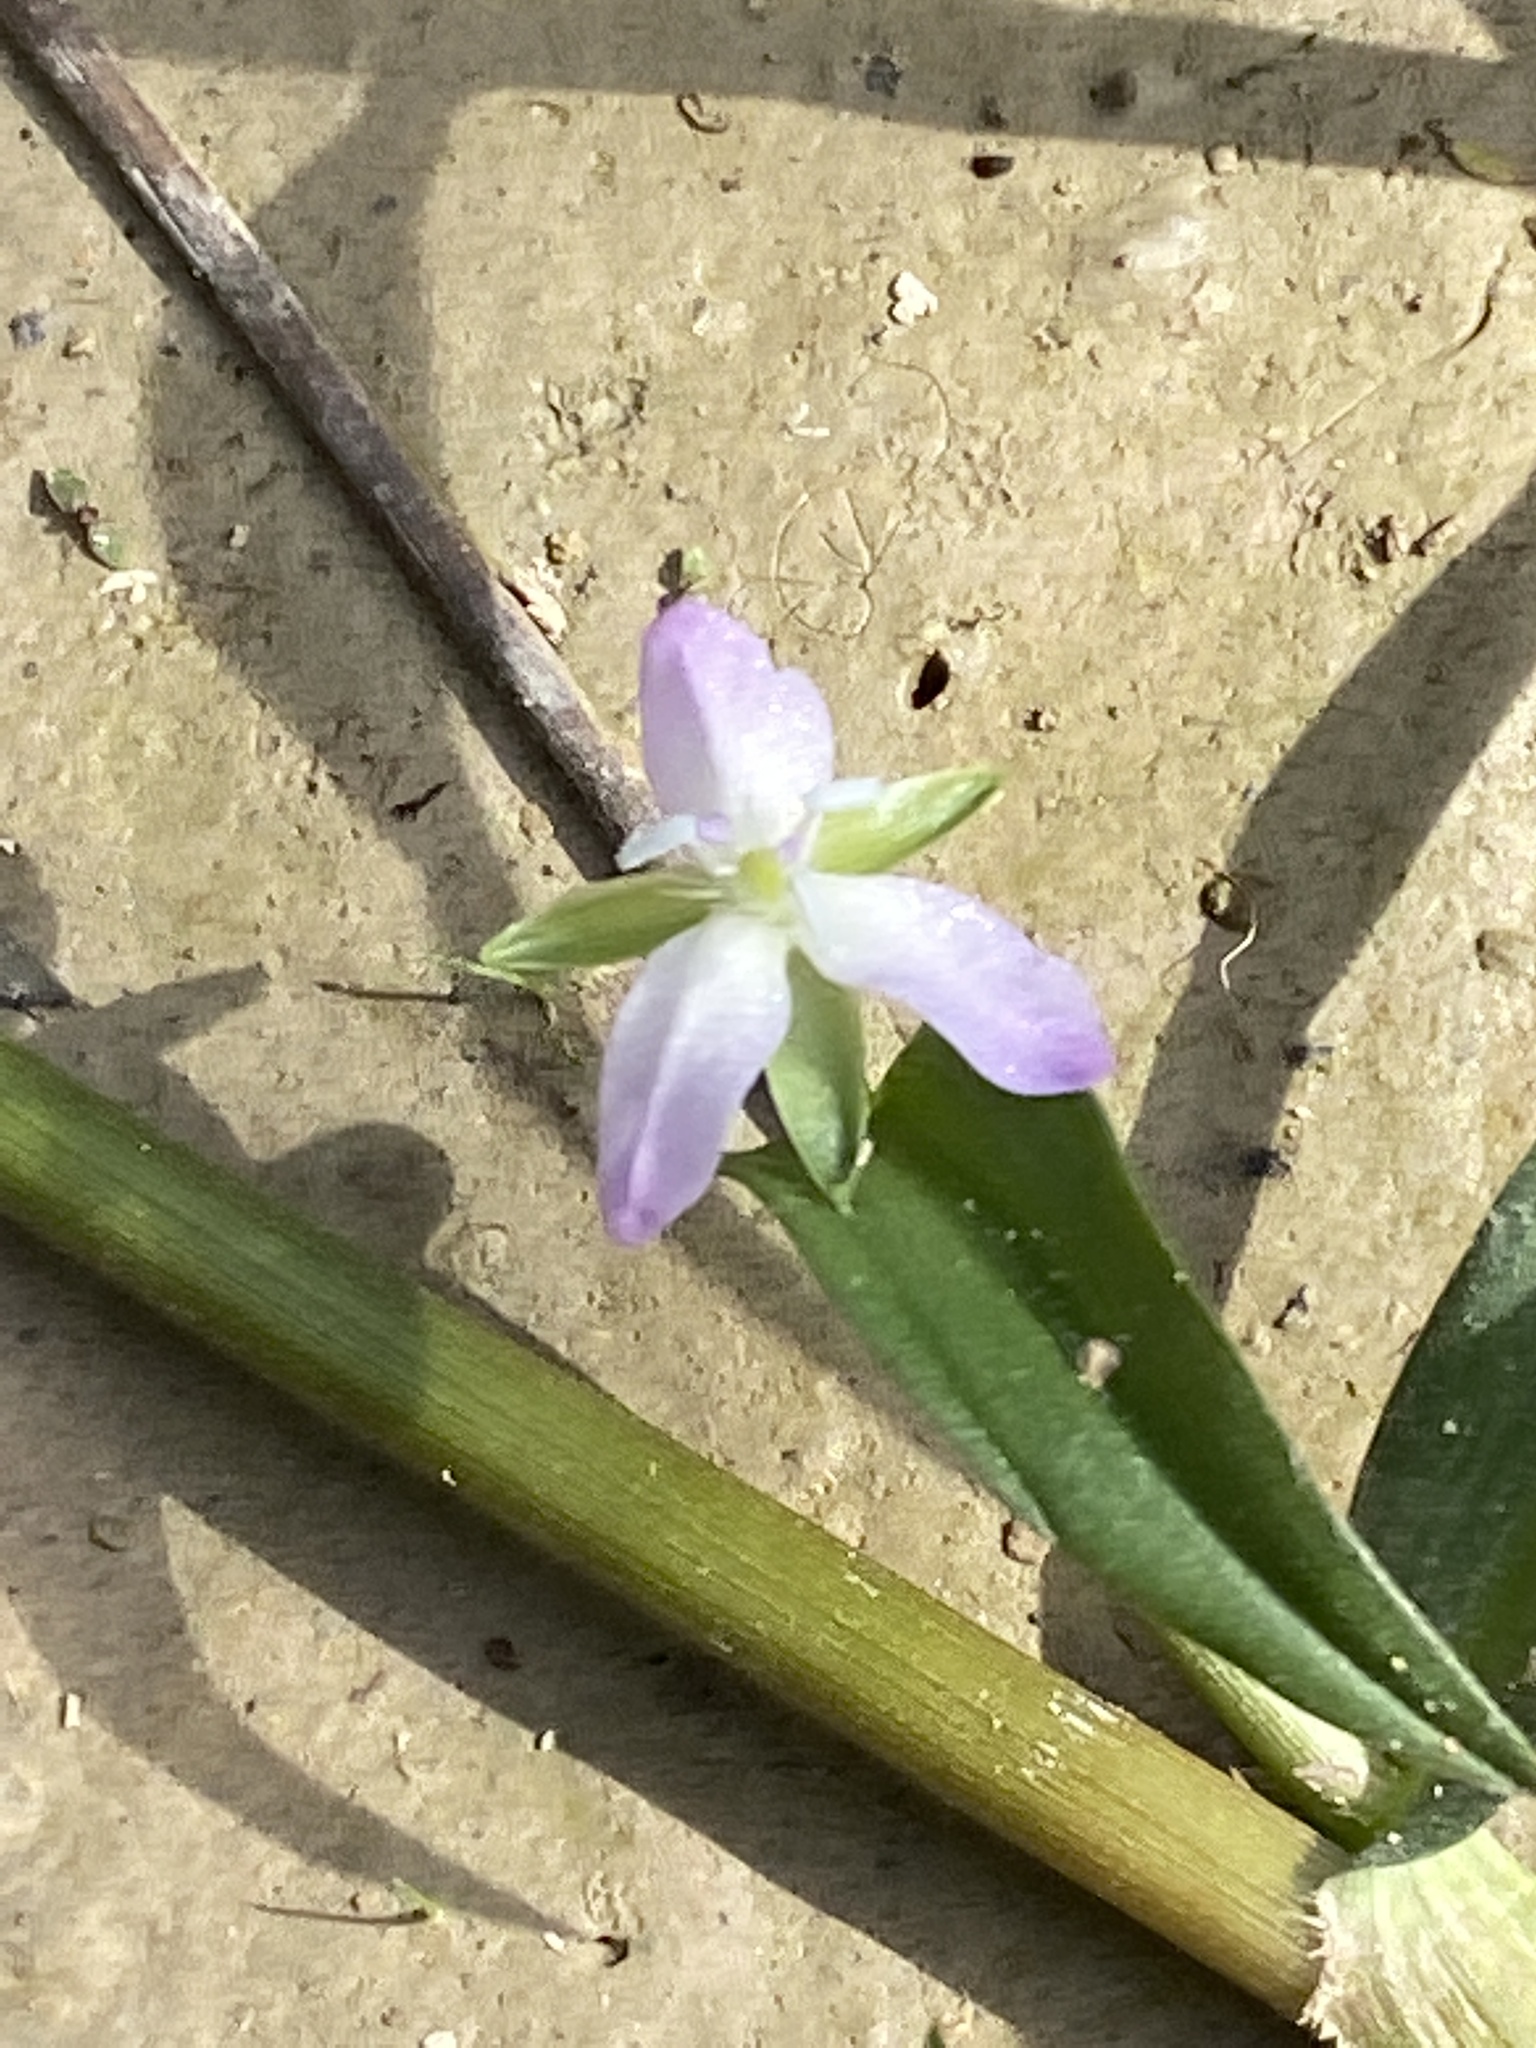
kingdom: Plantae
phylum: Tracheophyta
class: Liliopsida
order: Commelinales
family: Commelinaceae
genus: Murdannia
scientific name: Murdannia keisak
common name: Wartremoving herb
